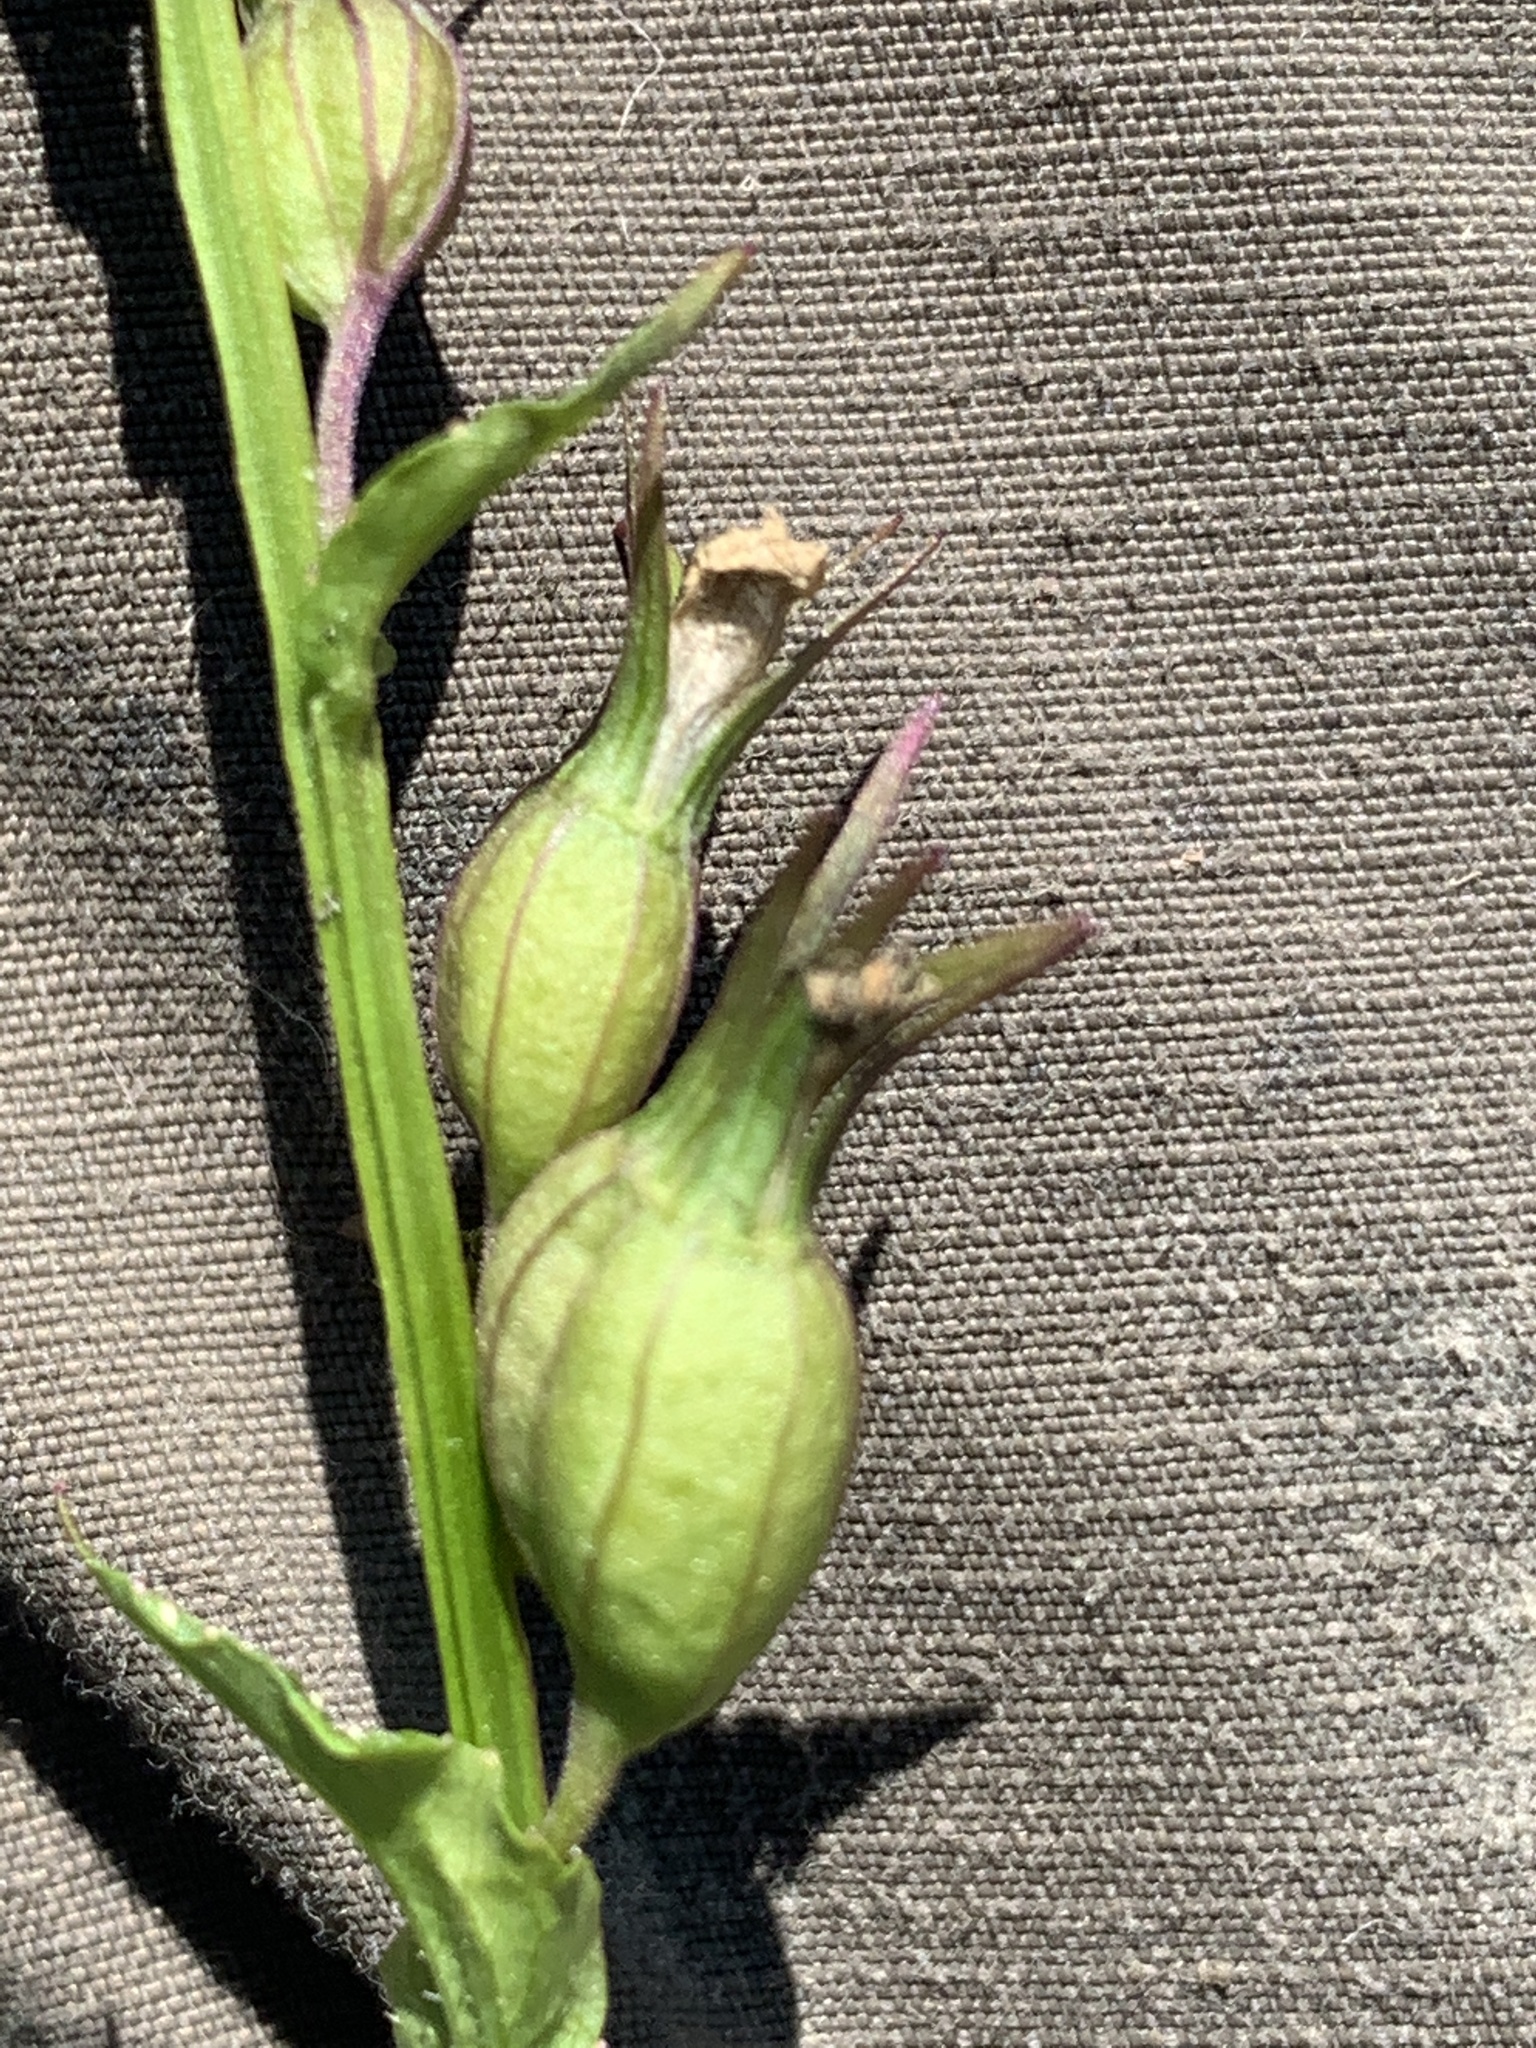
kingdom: Plantae
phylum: Tracheophyta
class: Magnoliopsida
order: Asterales
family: Campanulaceae
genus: Lobelia
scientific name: Lobelia inflata
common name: Indian tobacco
